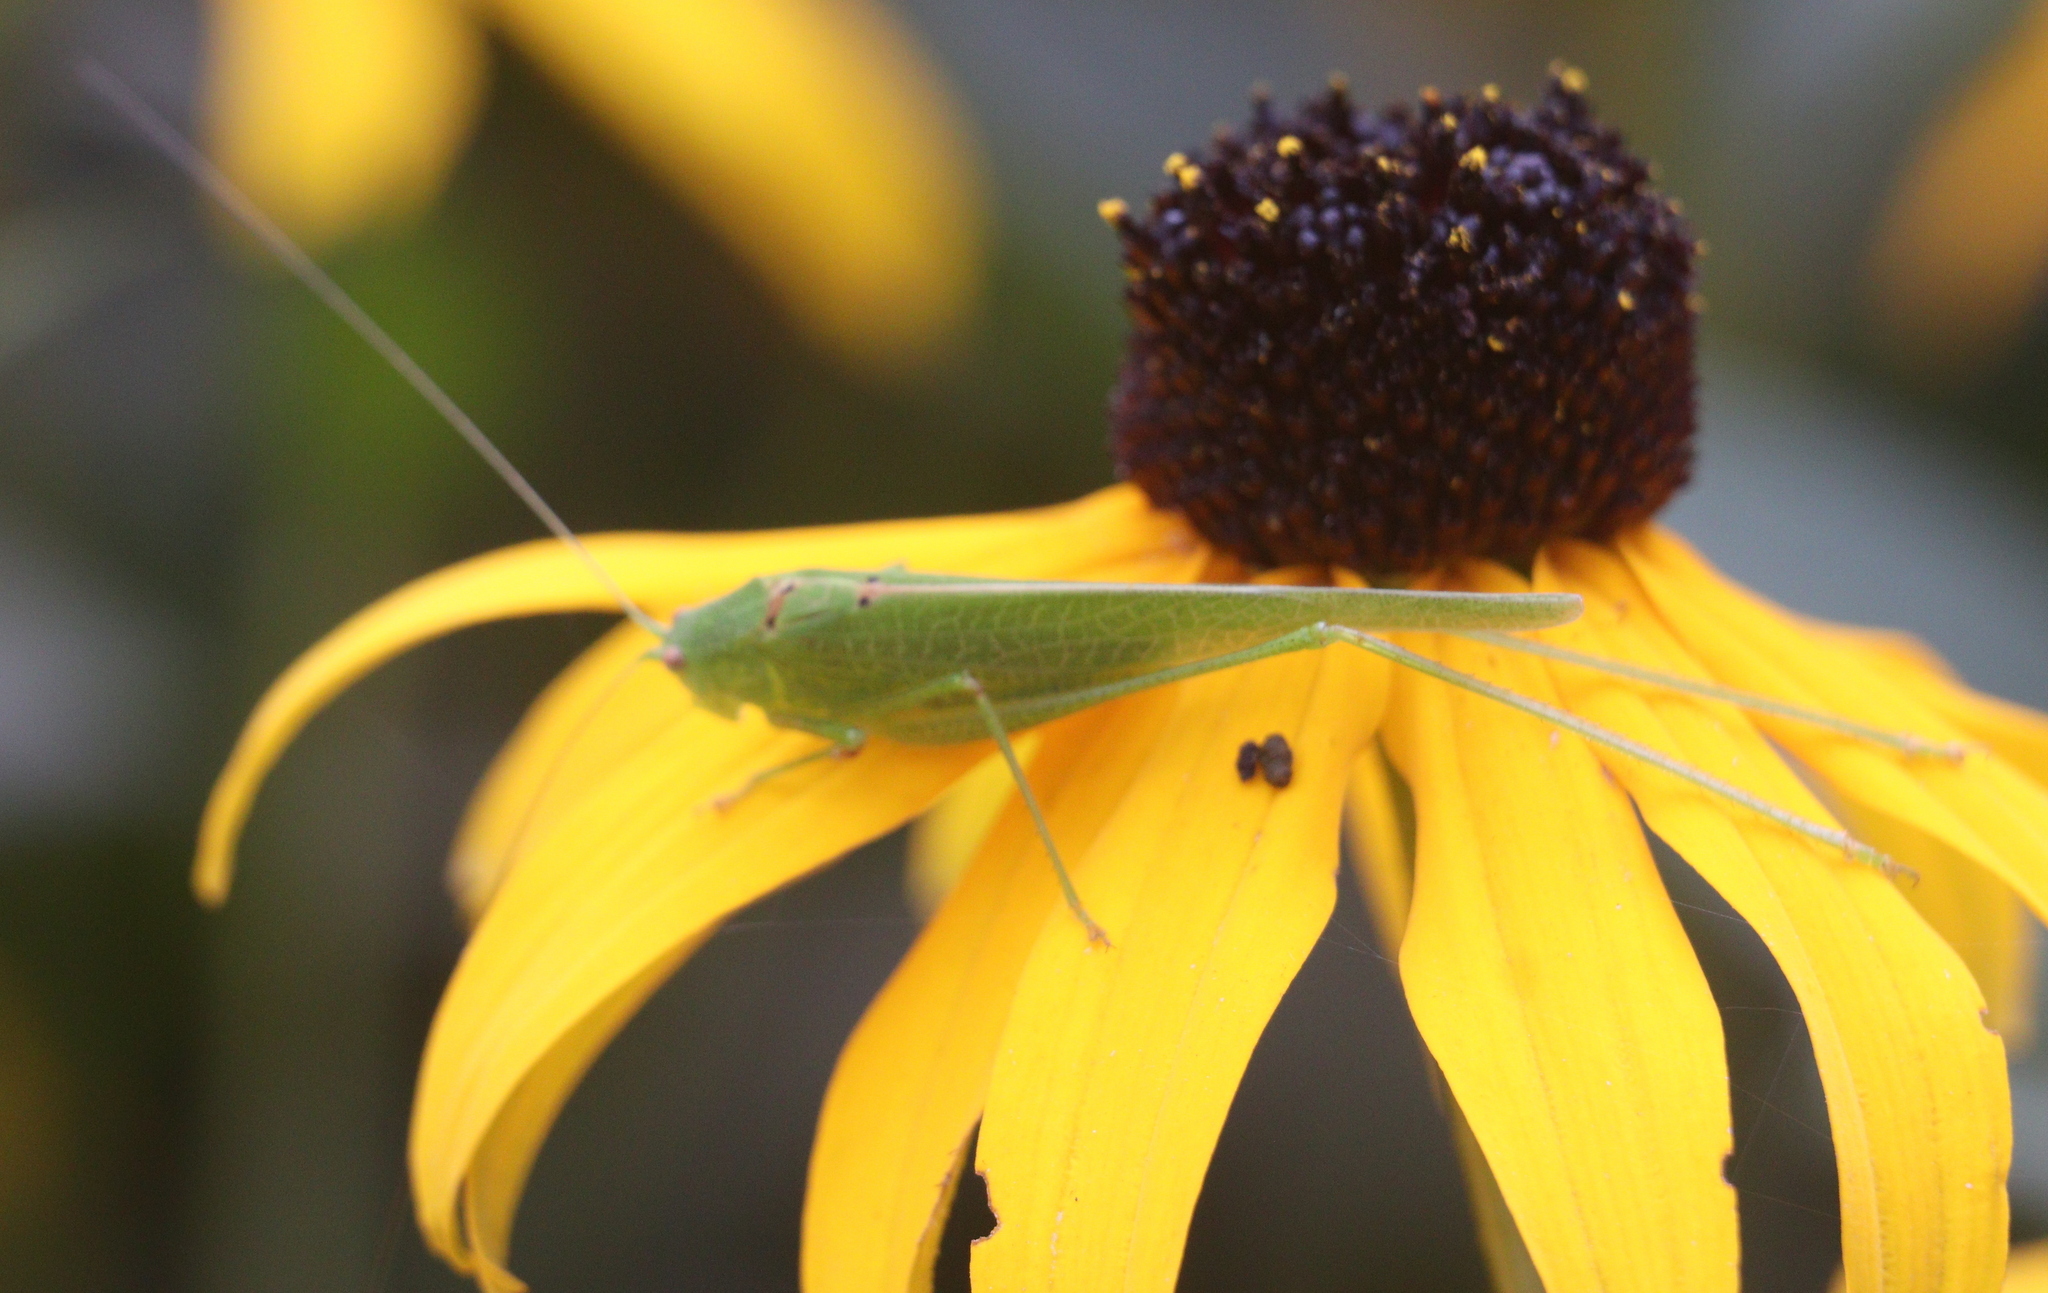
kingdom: Animalia
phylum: Arthropoda
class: Insecta
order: Orthoptera
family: Tettigoniidae
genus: Phaneroptera
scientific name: Phaneroptera nana
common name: Southern sickle bush-cricket
